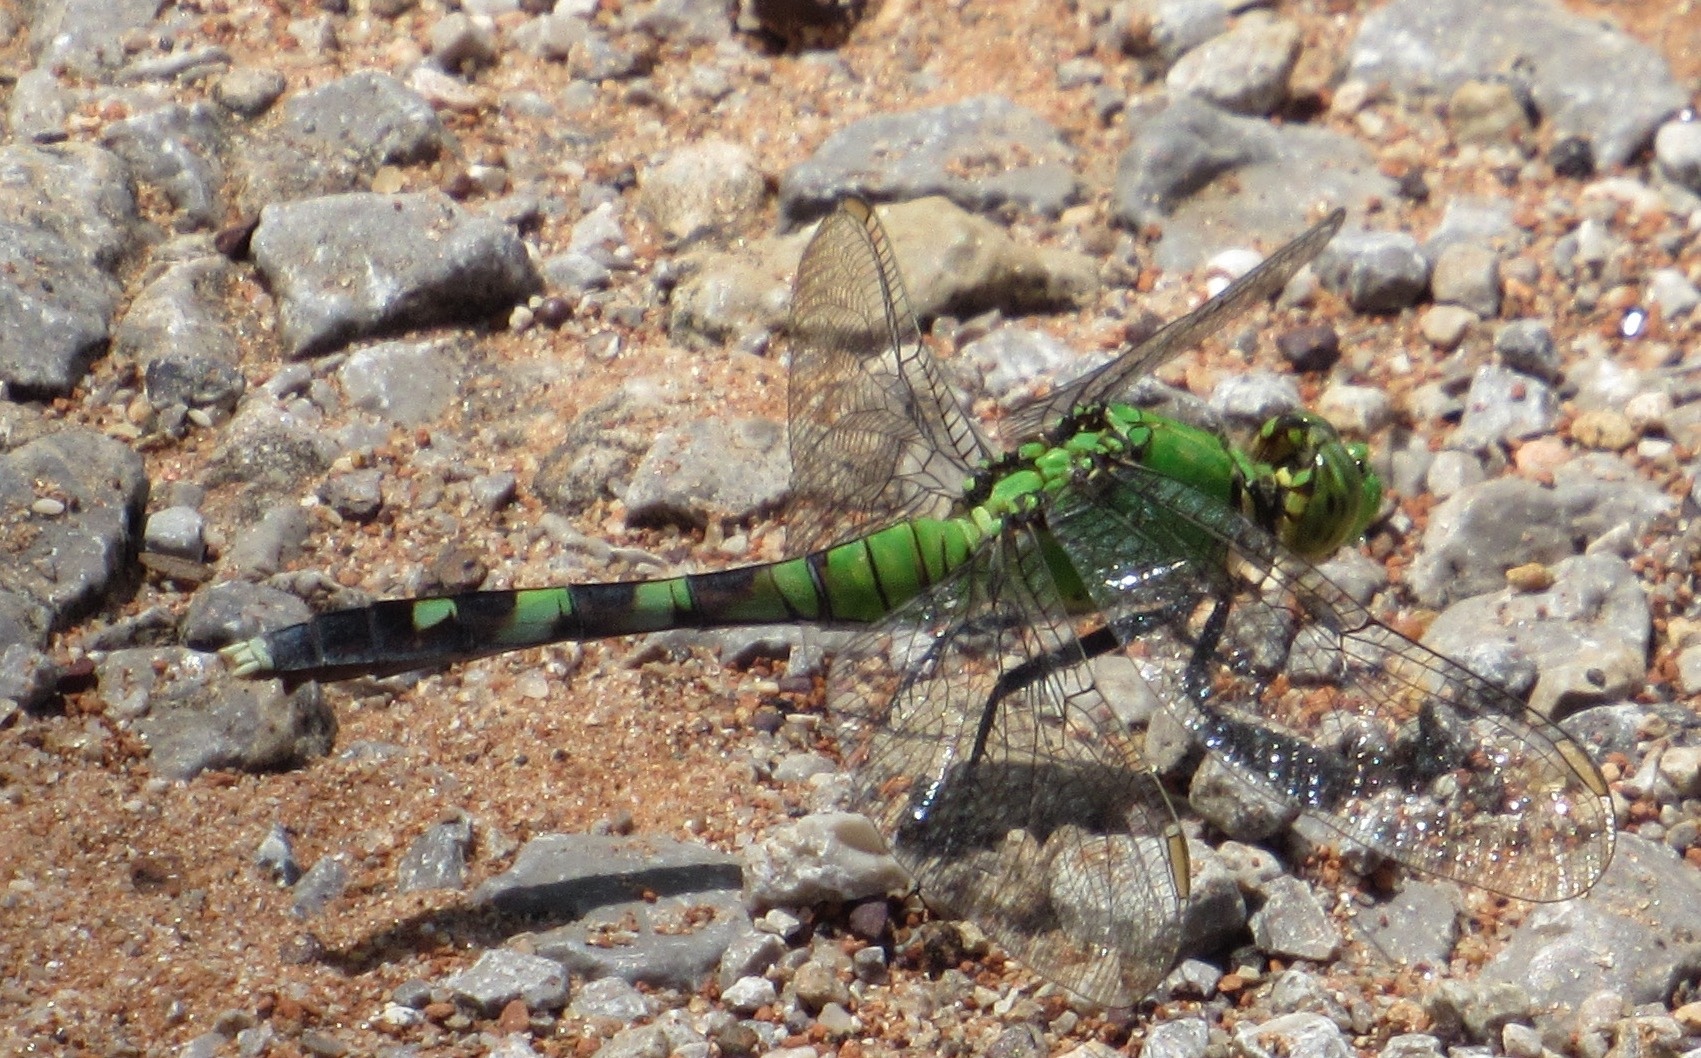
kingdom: Animalia
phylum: Arthropoda
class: Insecta
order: Odonata
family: Libellulidae
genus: Erythemis
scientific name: Erythemis simplicicollis
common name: Eastern pondhawk
